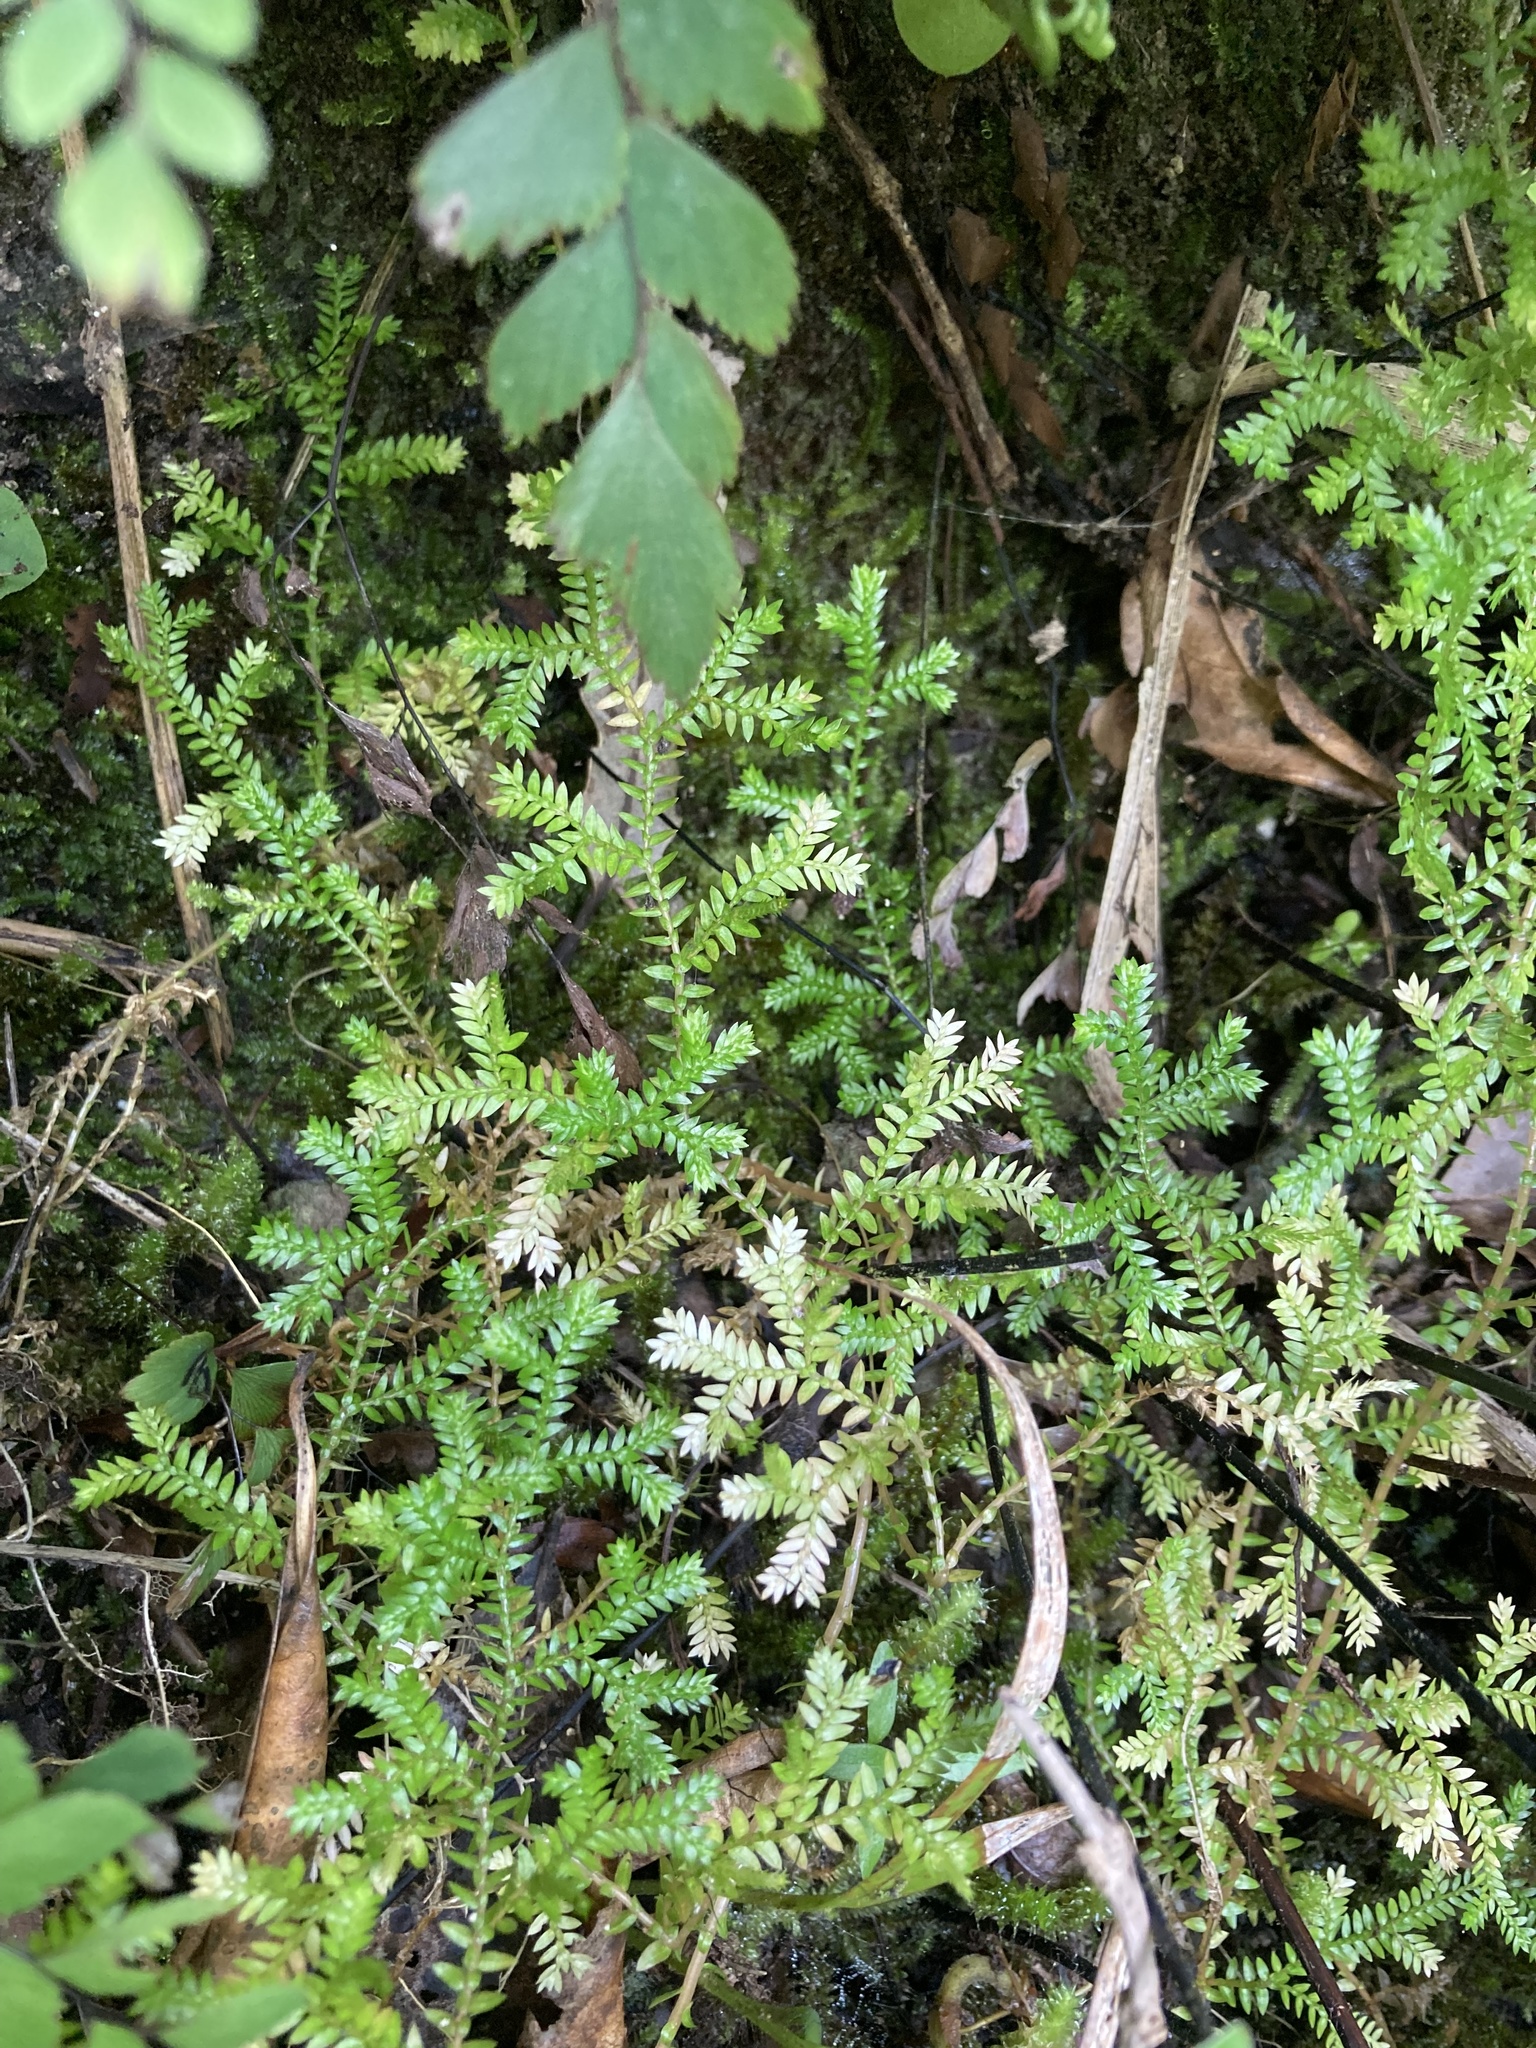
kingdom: Plantae
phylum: Tracheophyta
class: Lycopodiopsida
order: Selaginellales
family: Selaginellaceae
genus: Selaginella
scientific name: Selaginella kraussiana
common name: Krauss' spikemoss
